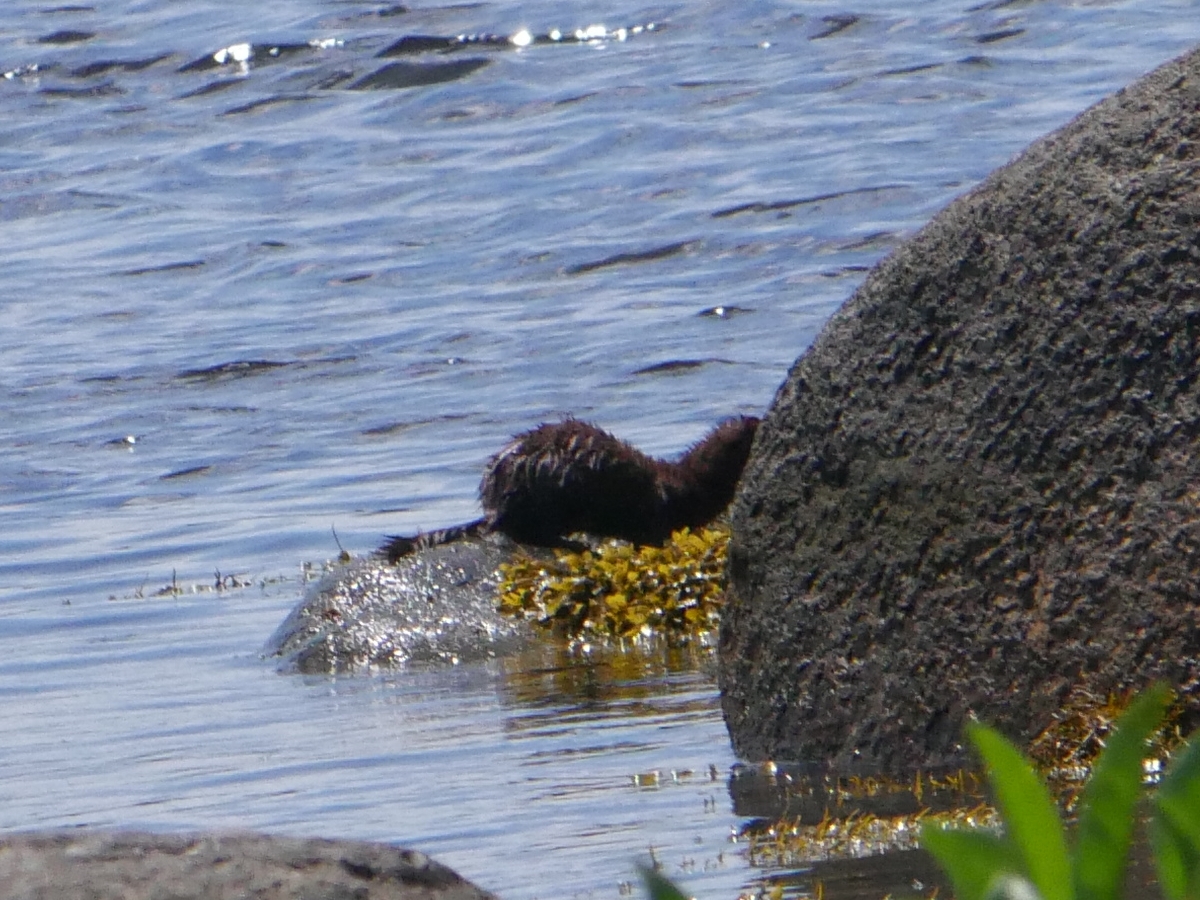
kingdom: Animalia
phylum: Chordata
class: Mammalia
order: Carnivora
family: Mustelidae
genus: Mustela
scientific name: Mustela
